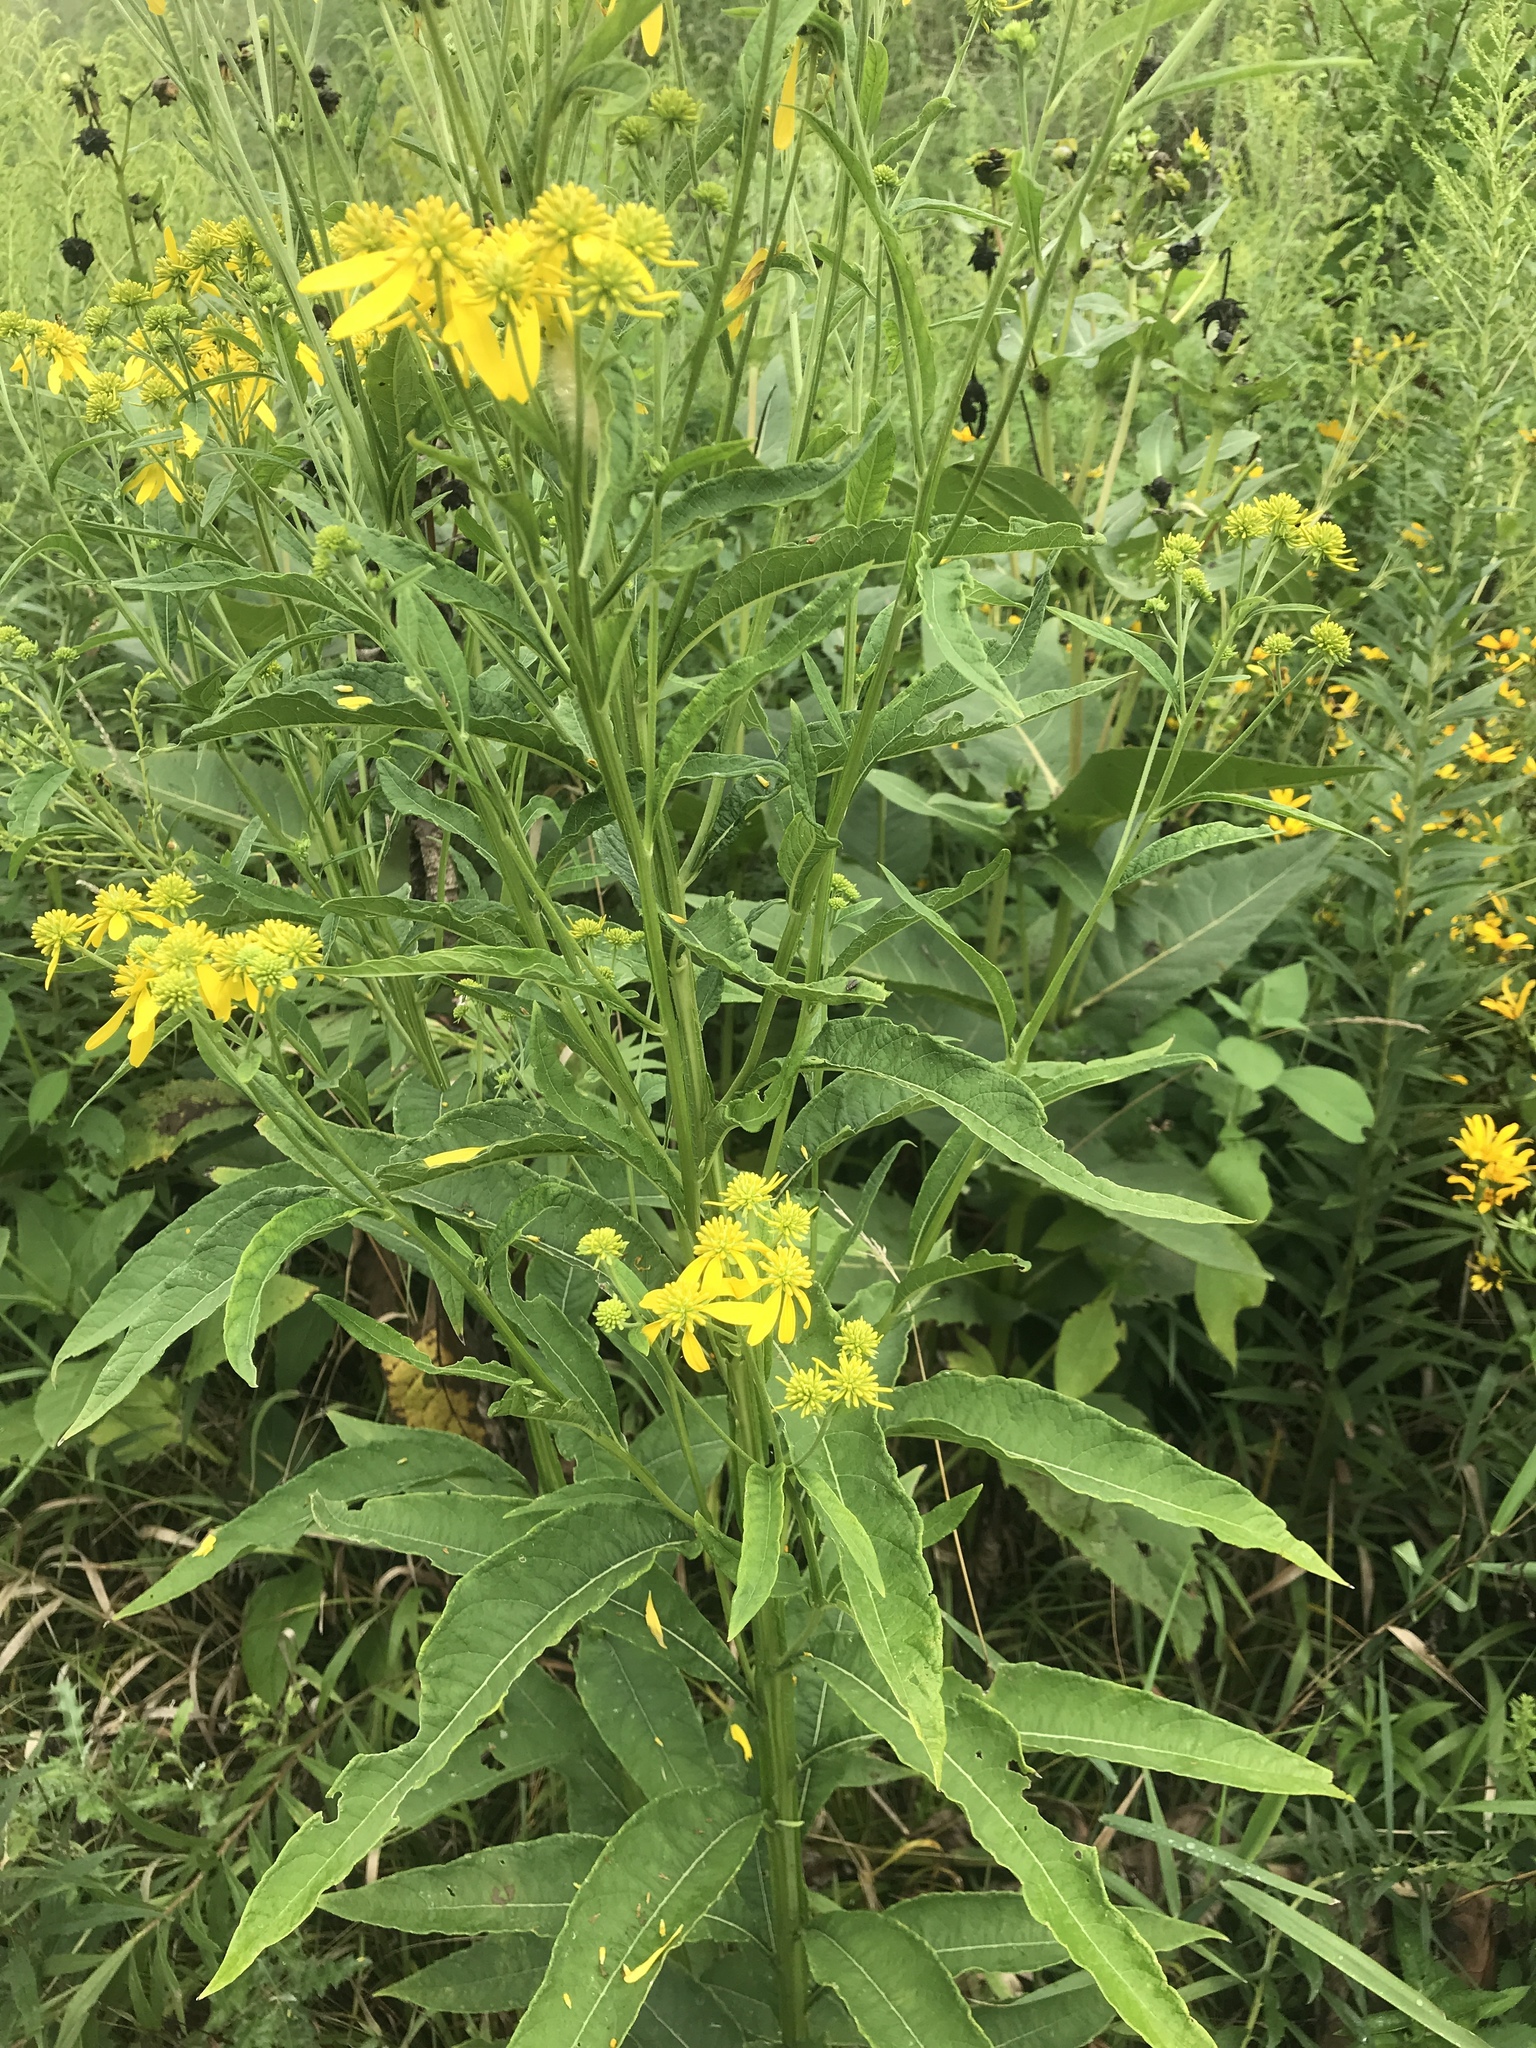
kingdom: Plantae
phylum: Tracheophyta
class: Magnoliopsida
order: Asterales
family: Asteraceae
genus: Verbesina
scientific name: Verbesina alternifolia
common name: Wingstem
